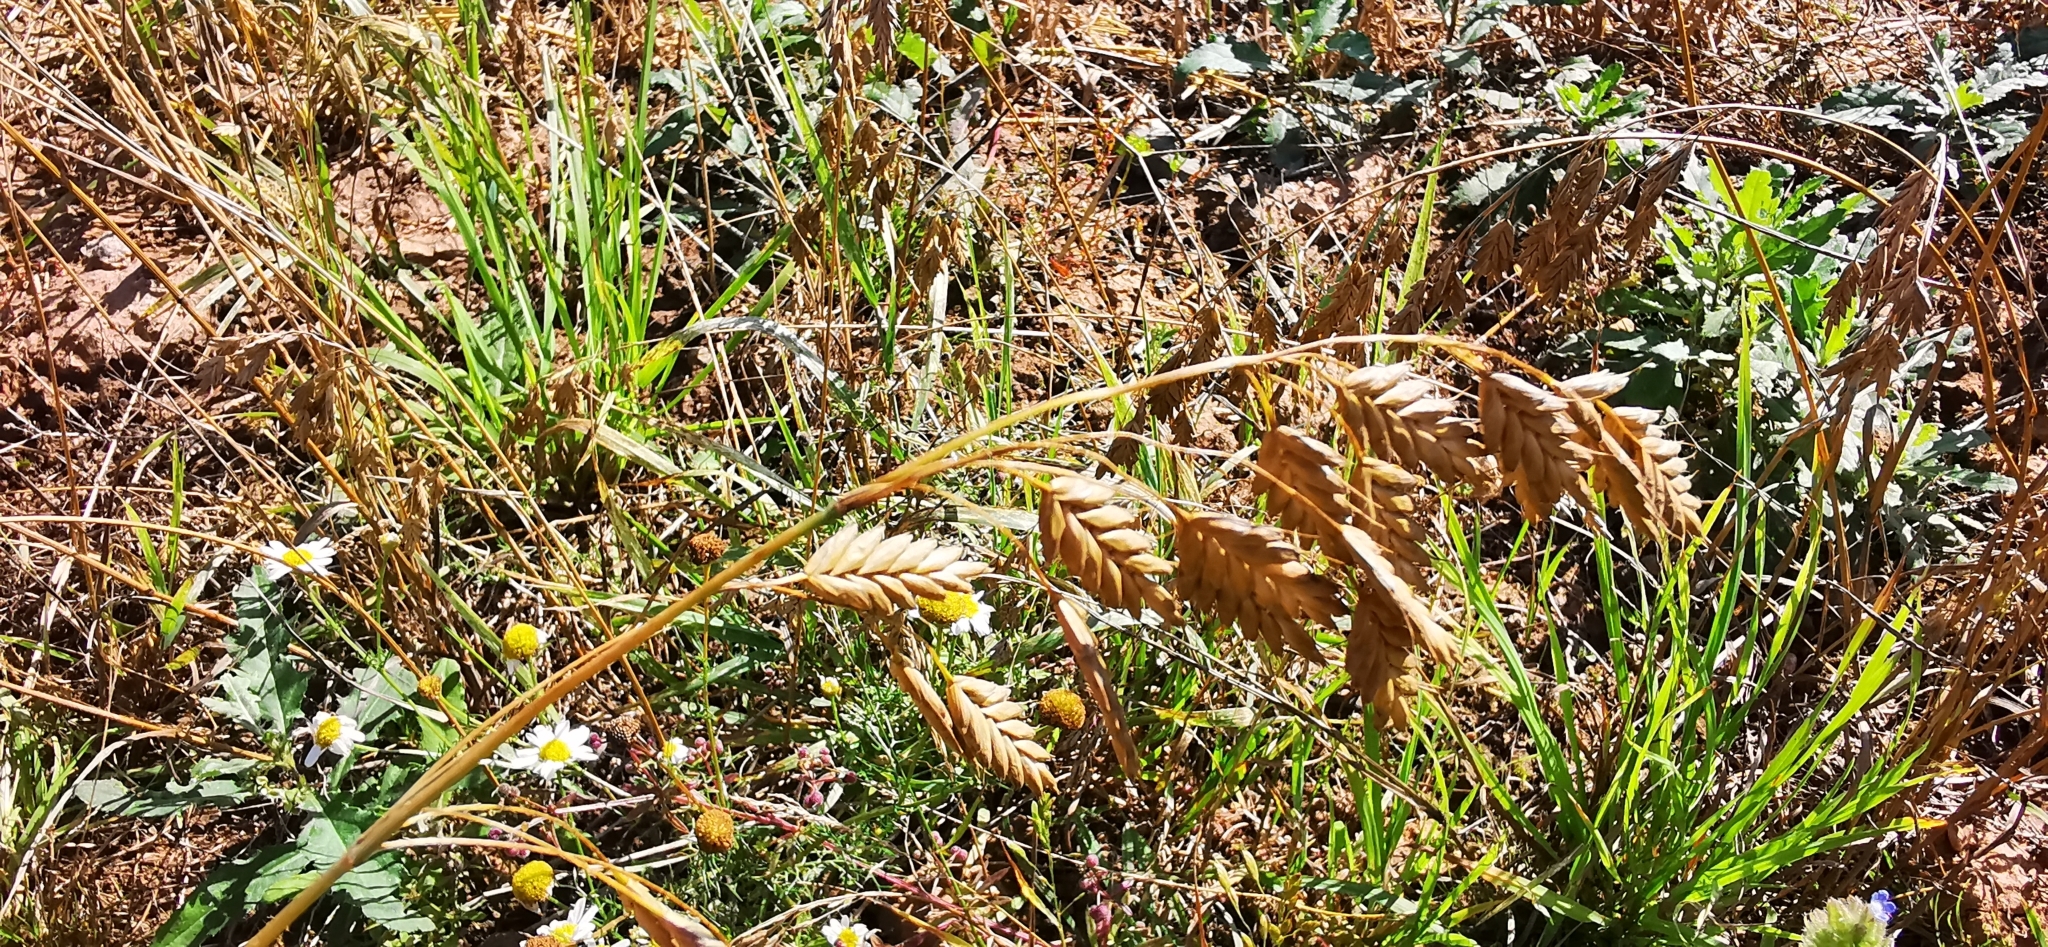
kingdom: Plantae
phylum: Tracheophyta
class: Liliopsida
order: Poales
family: Poaceae
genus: Bromus
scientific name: Bromus secalinus
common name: Rye brome
